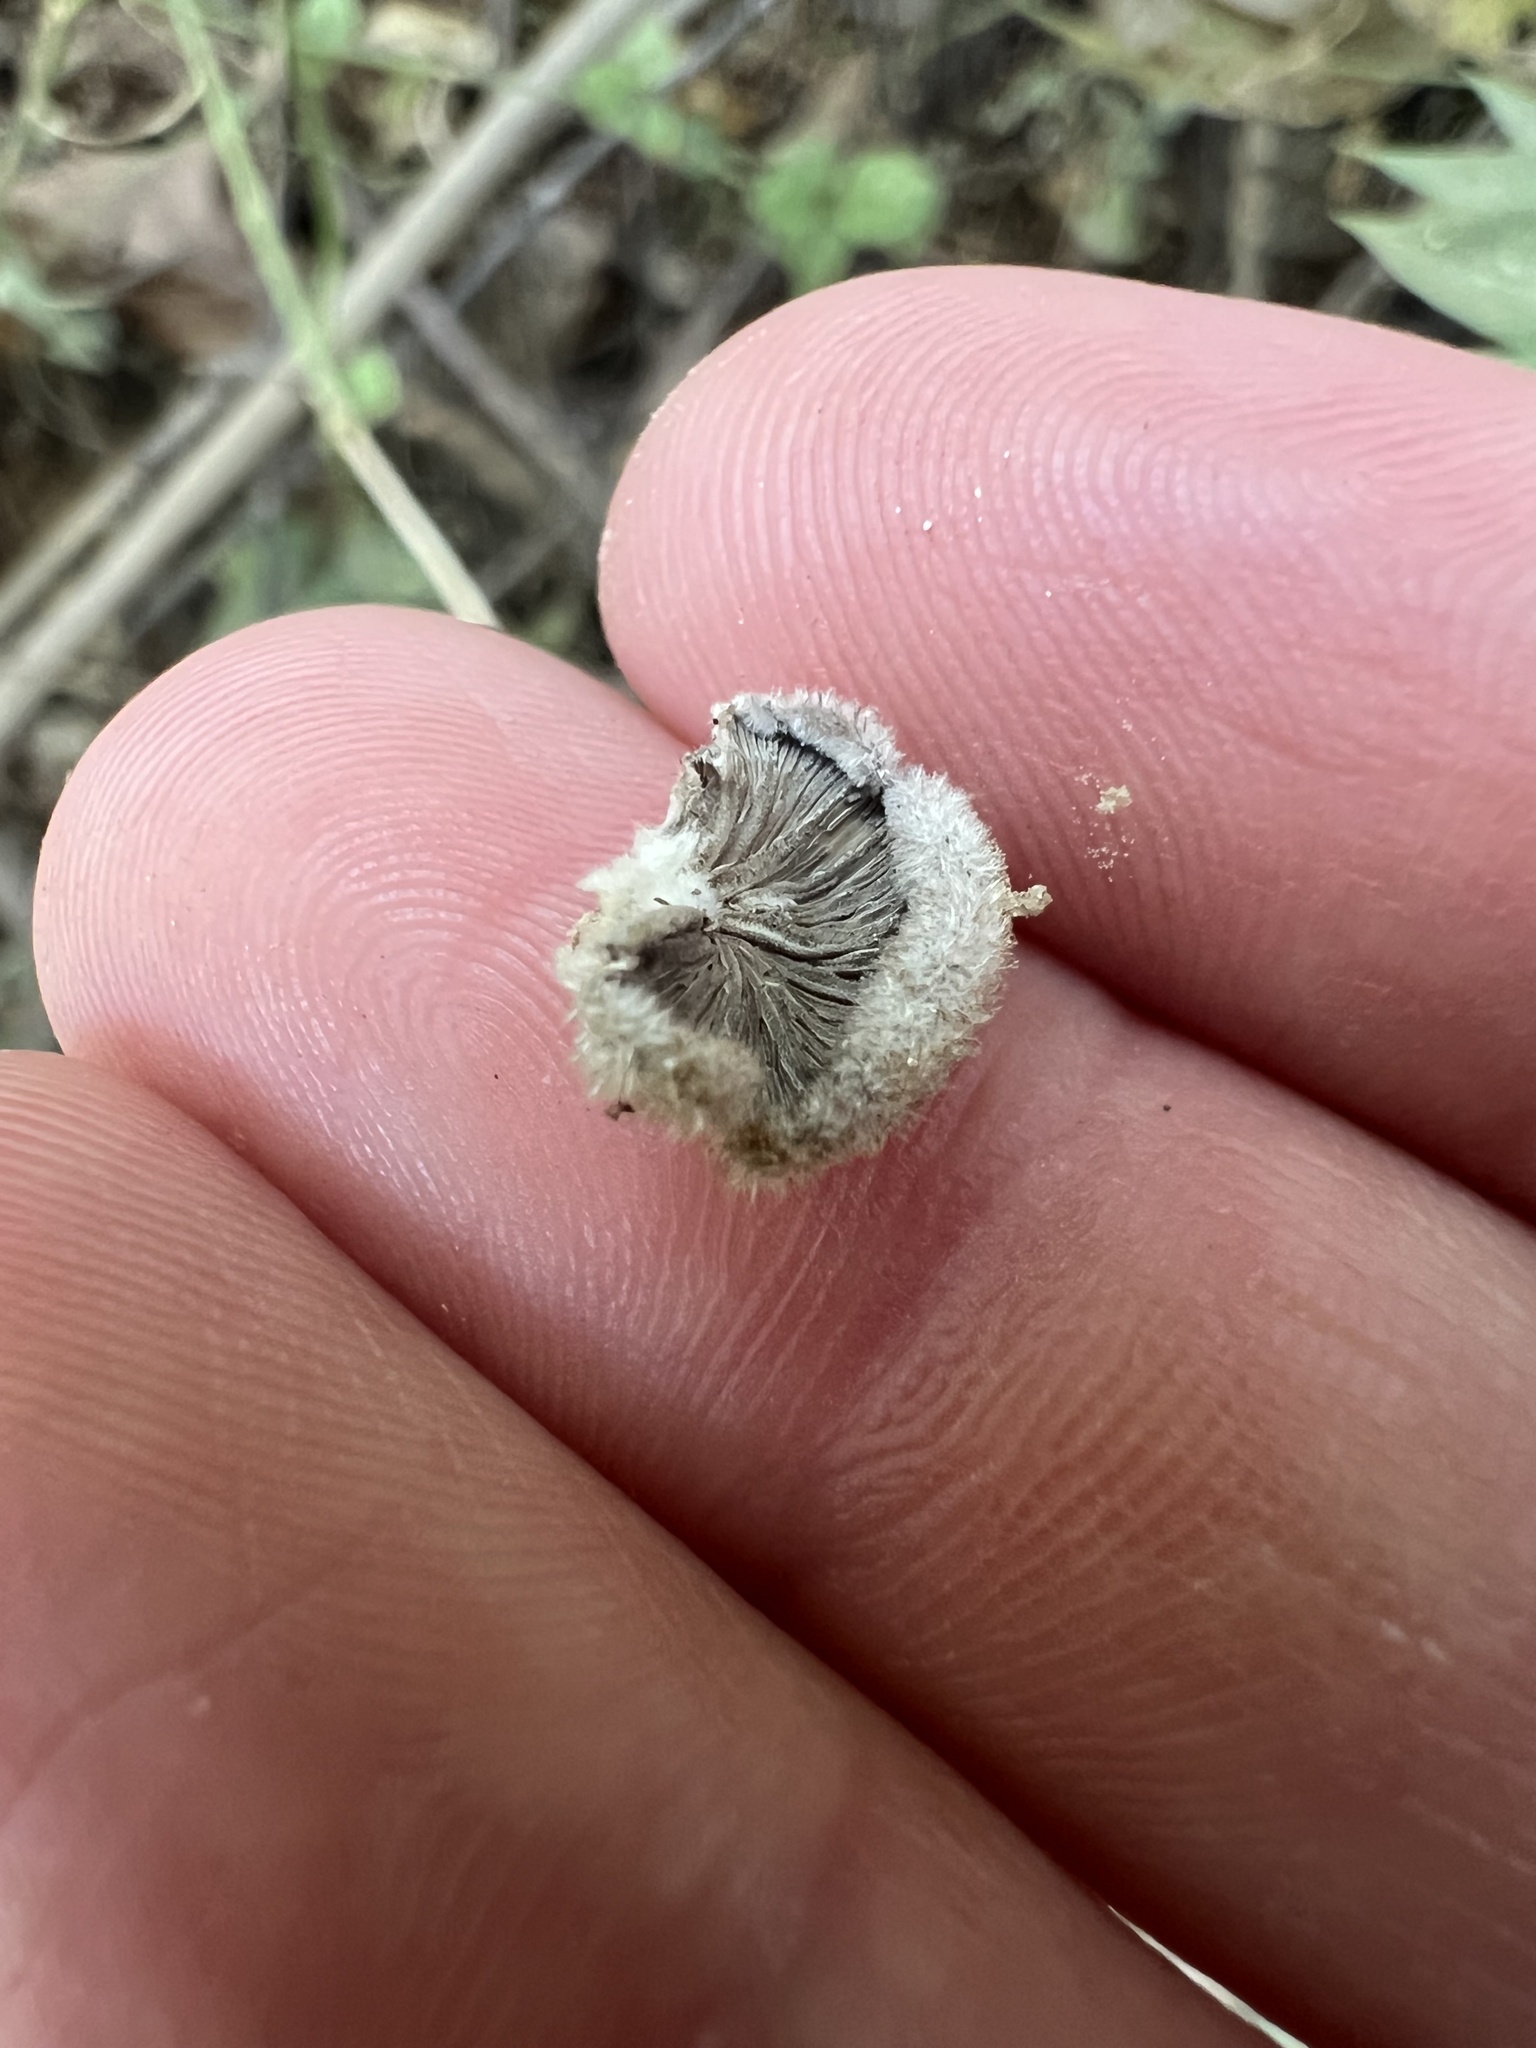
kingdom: Fungi
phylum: Basidiomycota
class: Agaricomycetes
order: Agaricales
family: Schizophyllaceae
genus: Schizophyllum
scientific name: Schizophyllum commune
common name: Common porecrust
